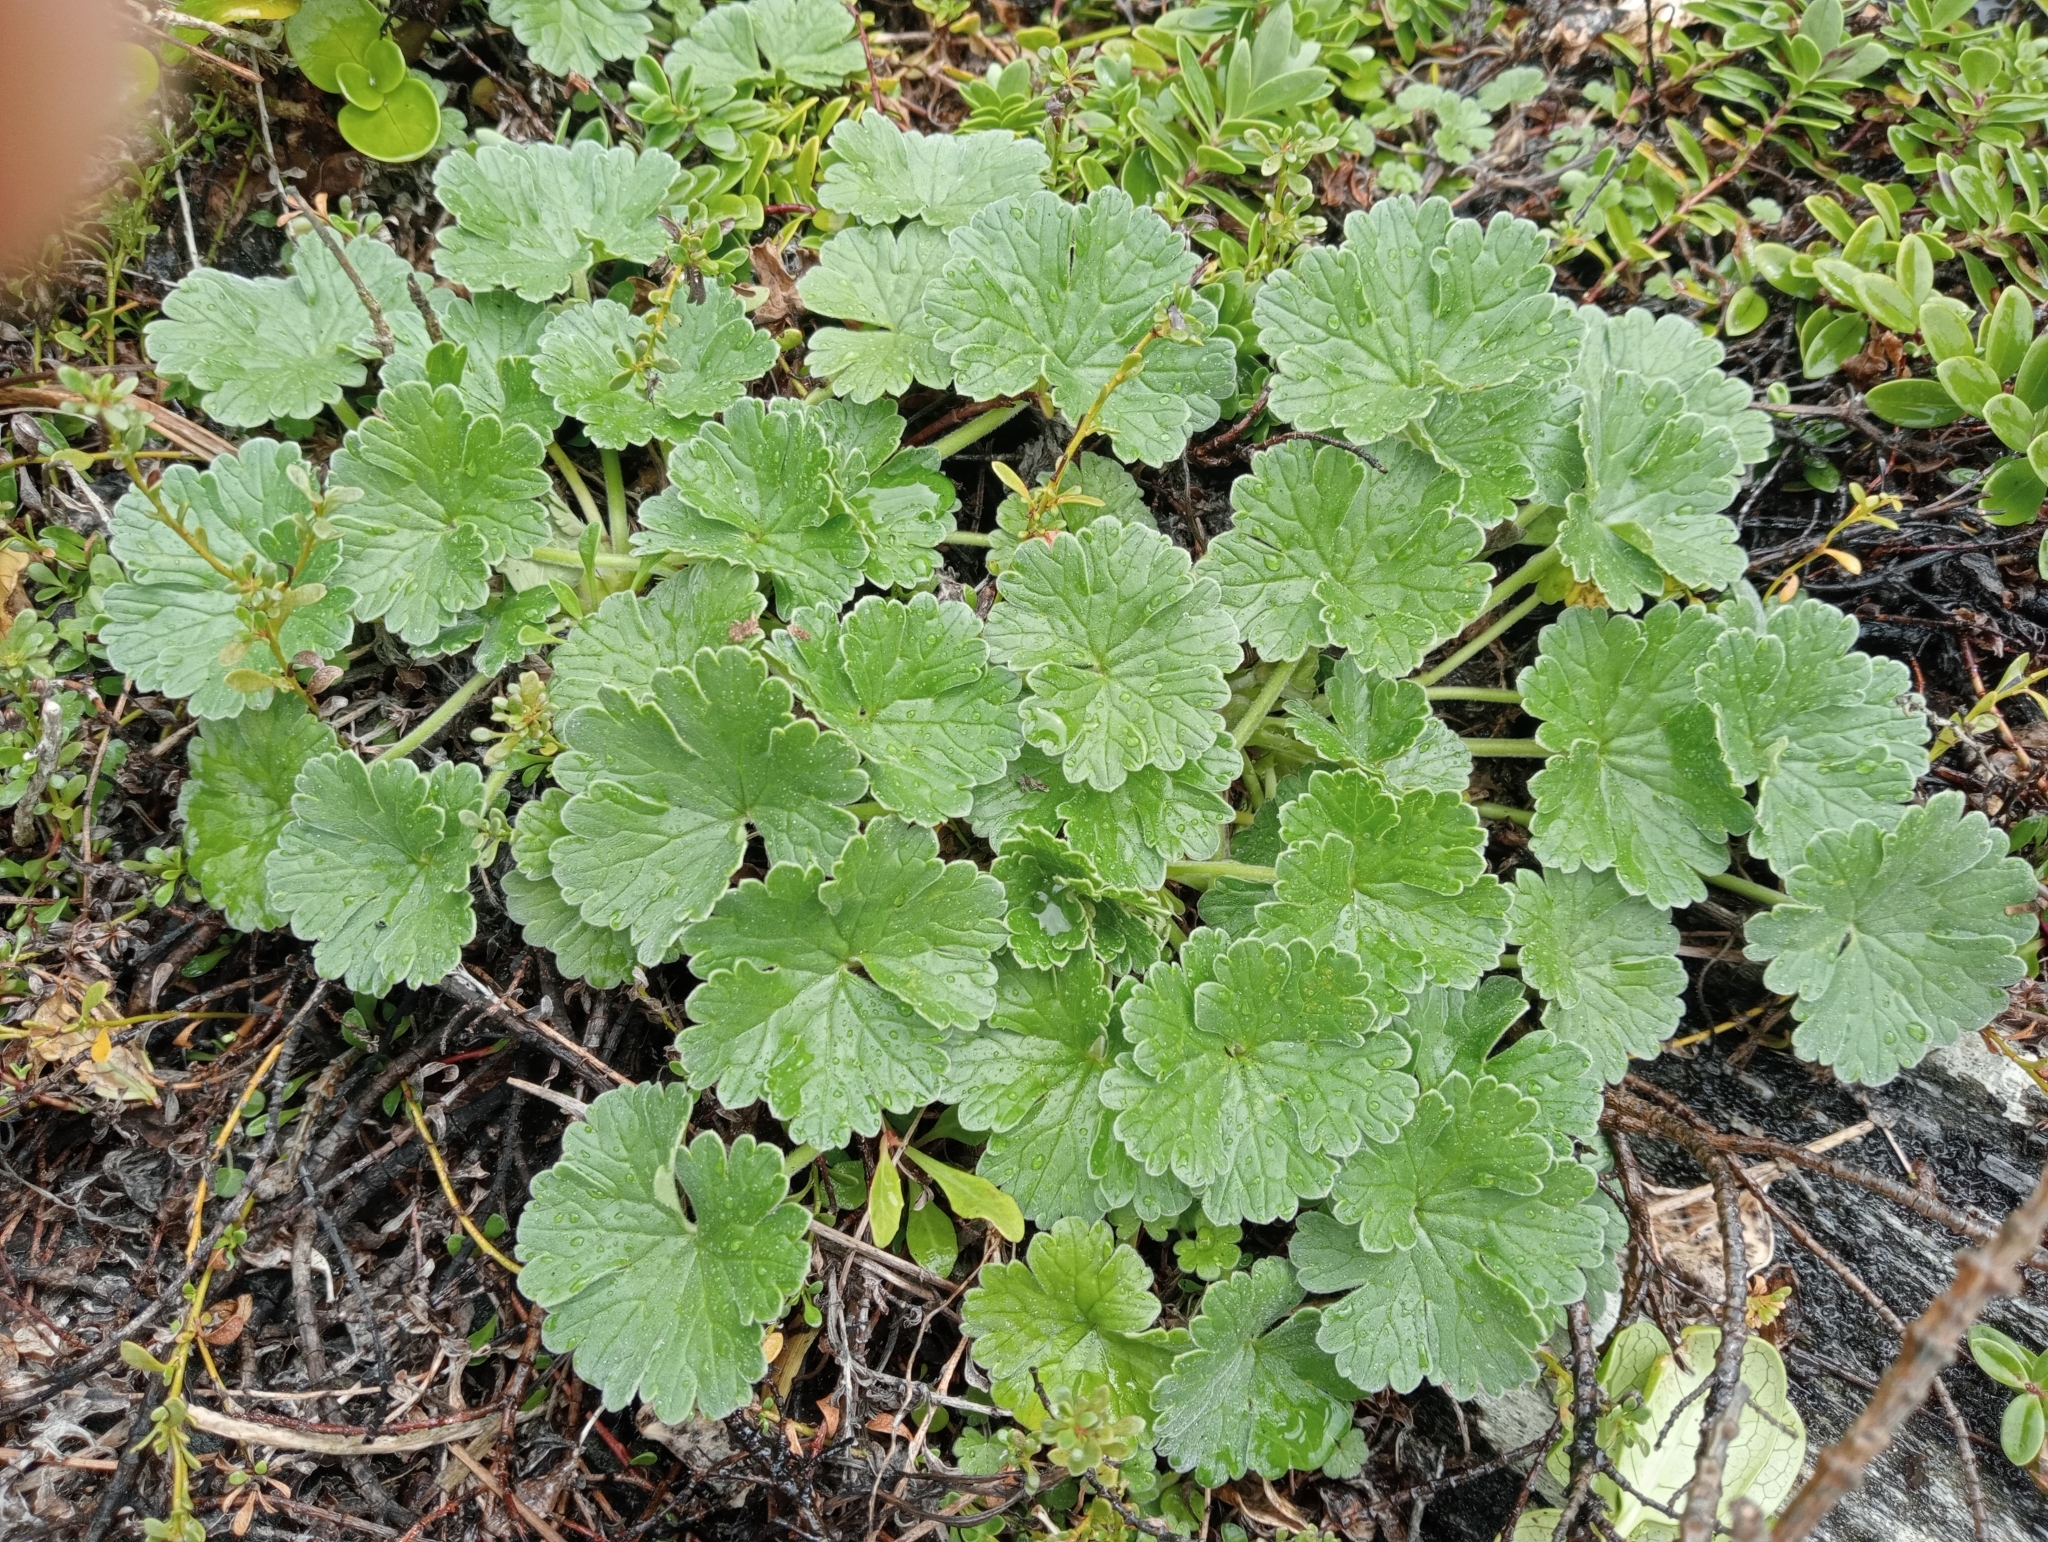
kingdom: Plantae
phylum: Tracheophyta
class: Magnoliopsida
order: Geraniales
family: Geraniaceae
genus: Geranium
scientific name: Geranium traversii
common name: Cranesbill
